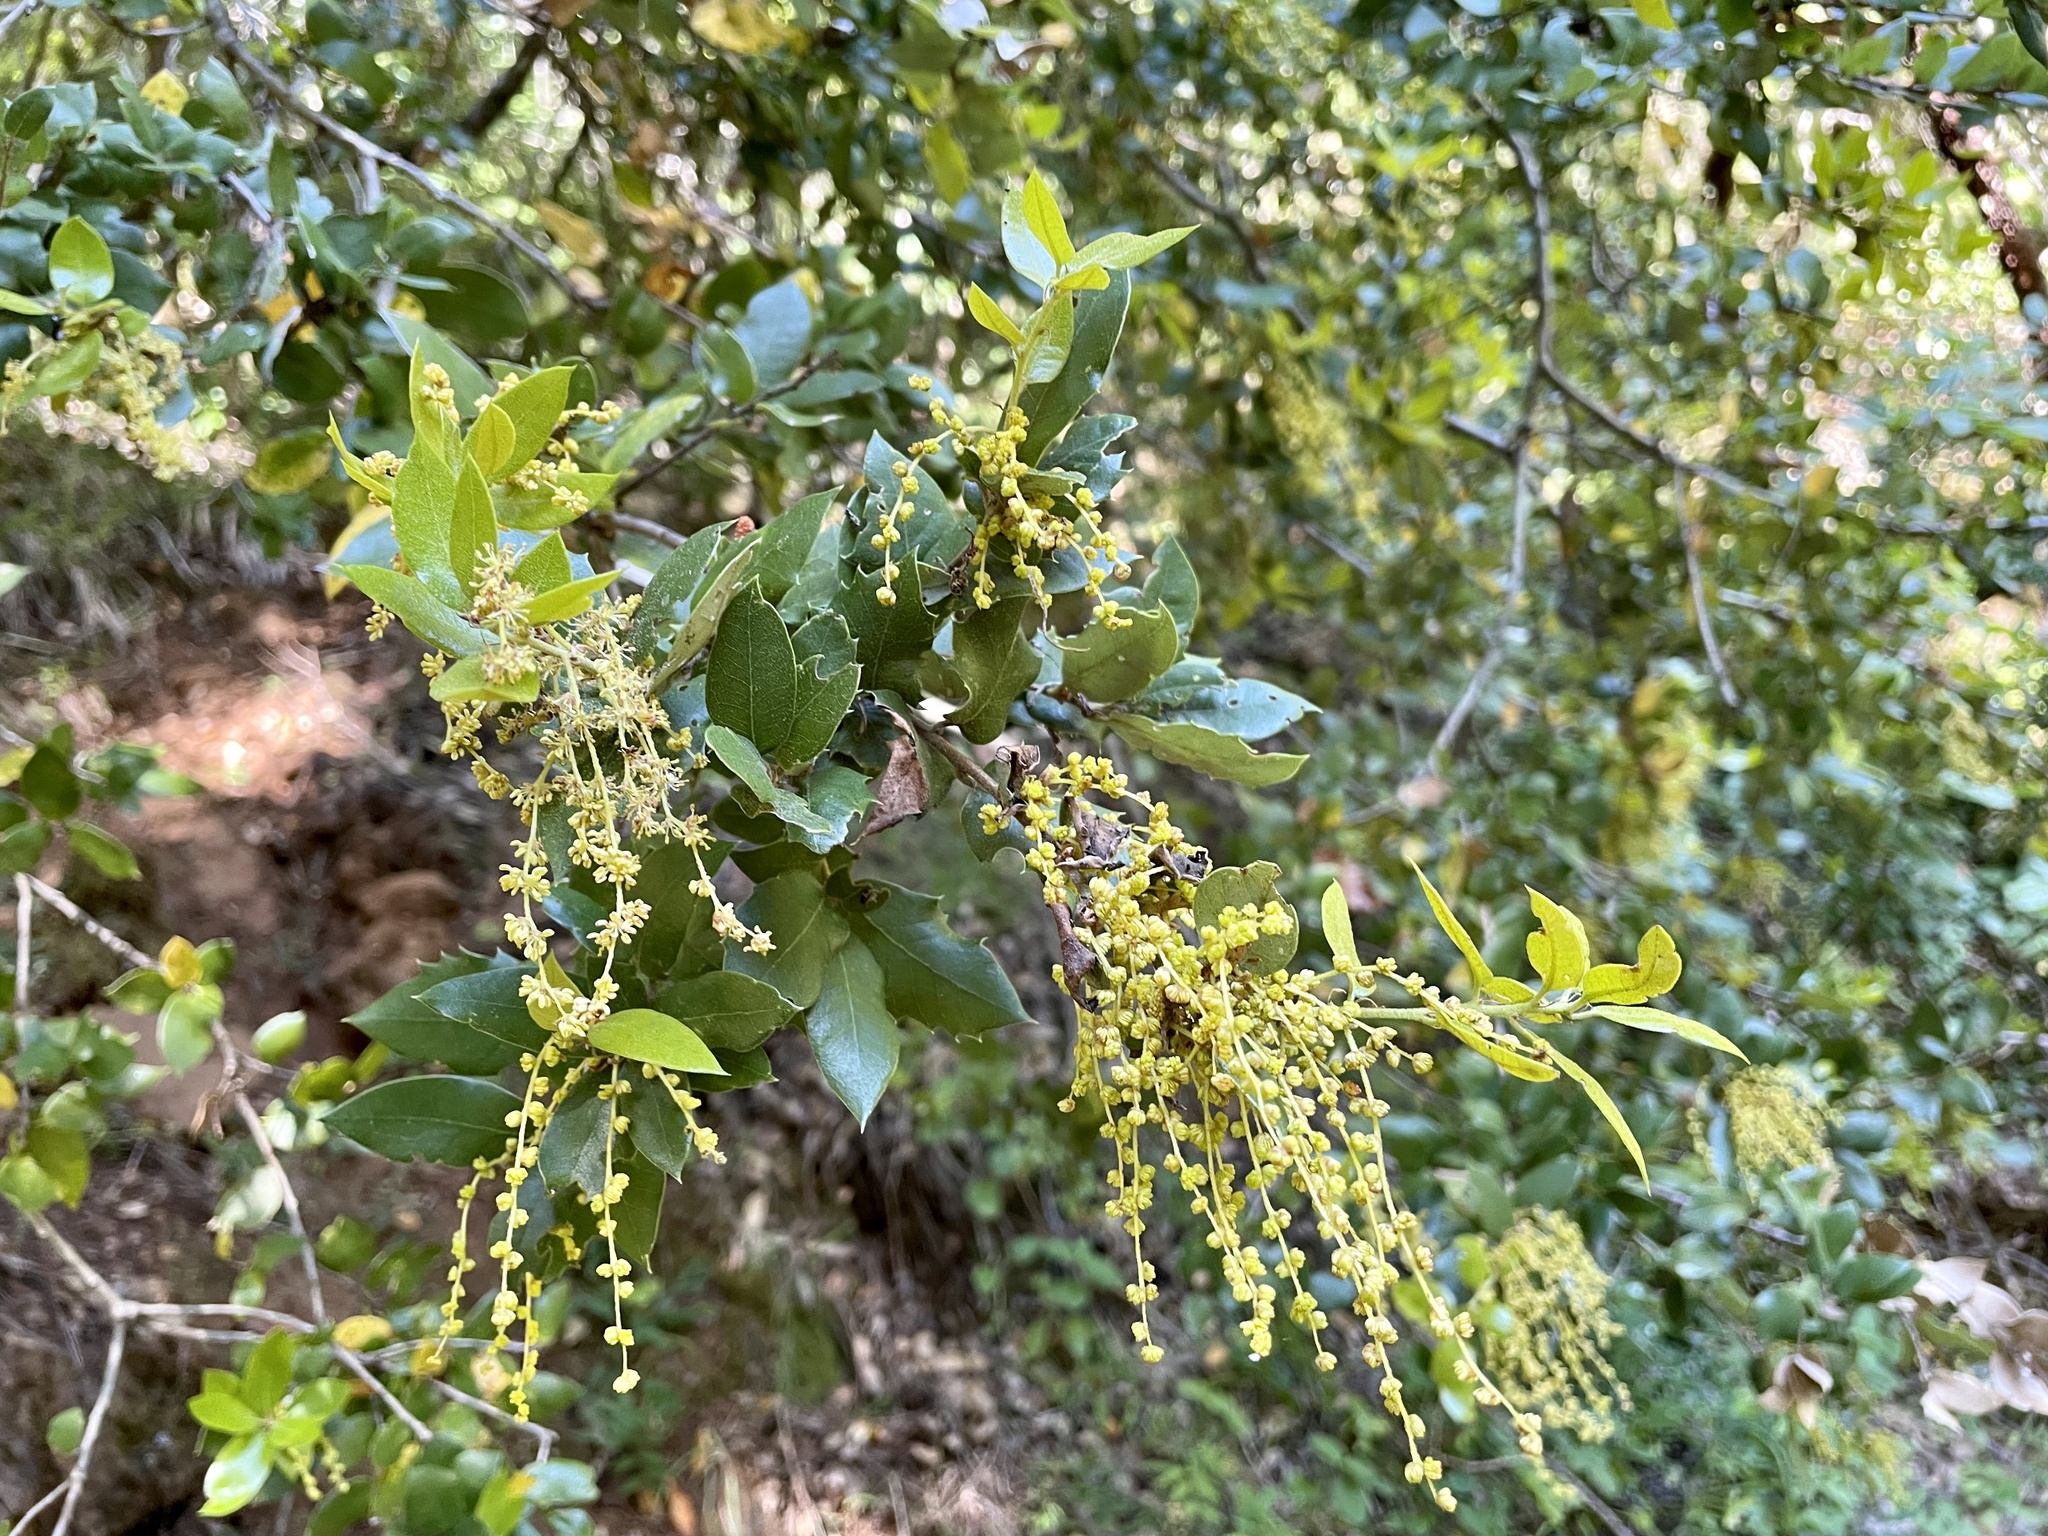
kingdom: Plantae
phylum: Tracheophyta
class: Magnoliopsida
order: Fagales
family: Fagaceae
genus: Quercus
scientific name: Quercus parvula
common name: Santa cruz island oak
